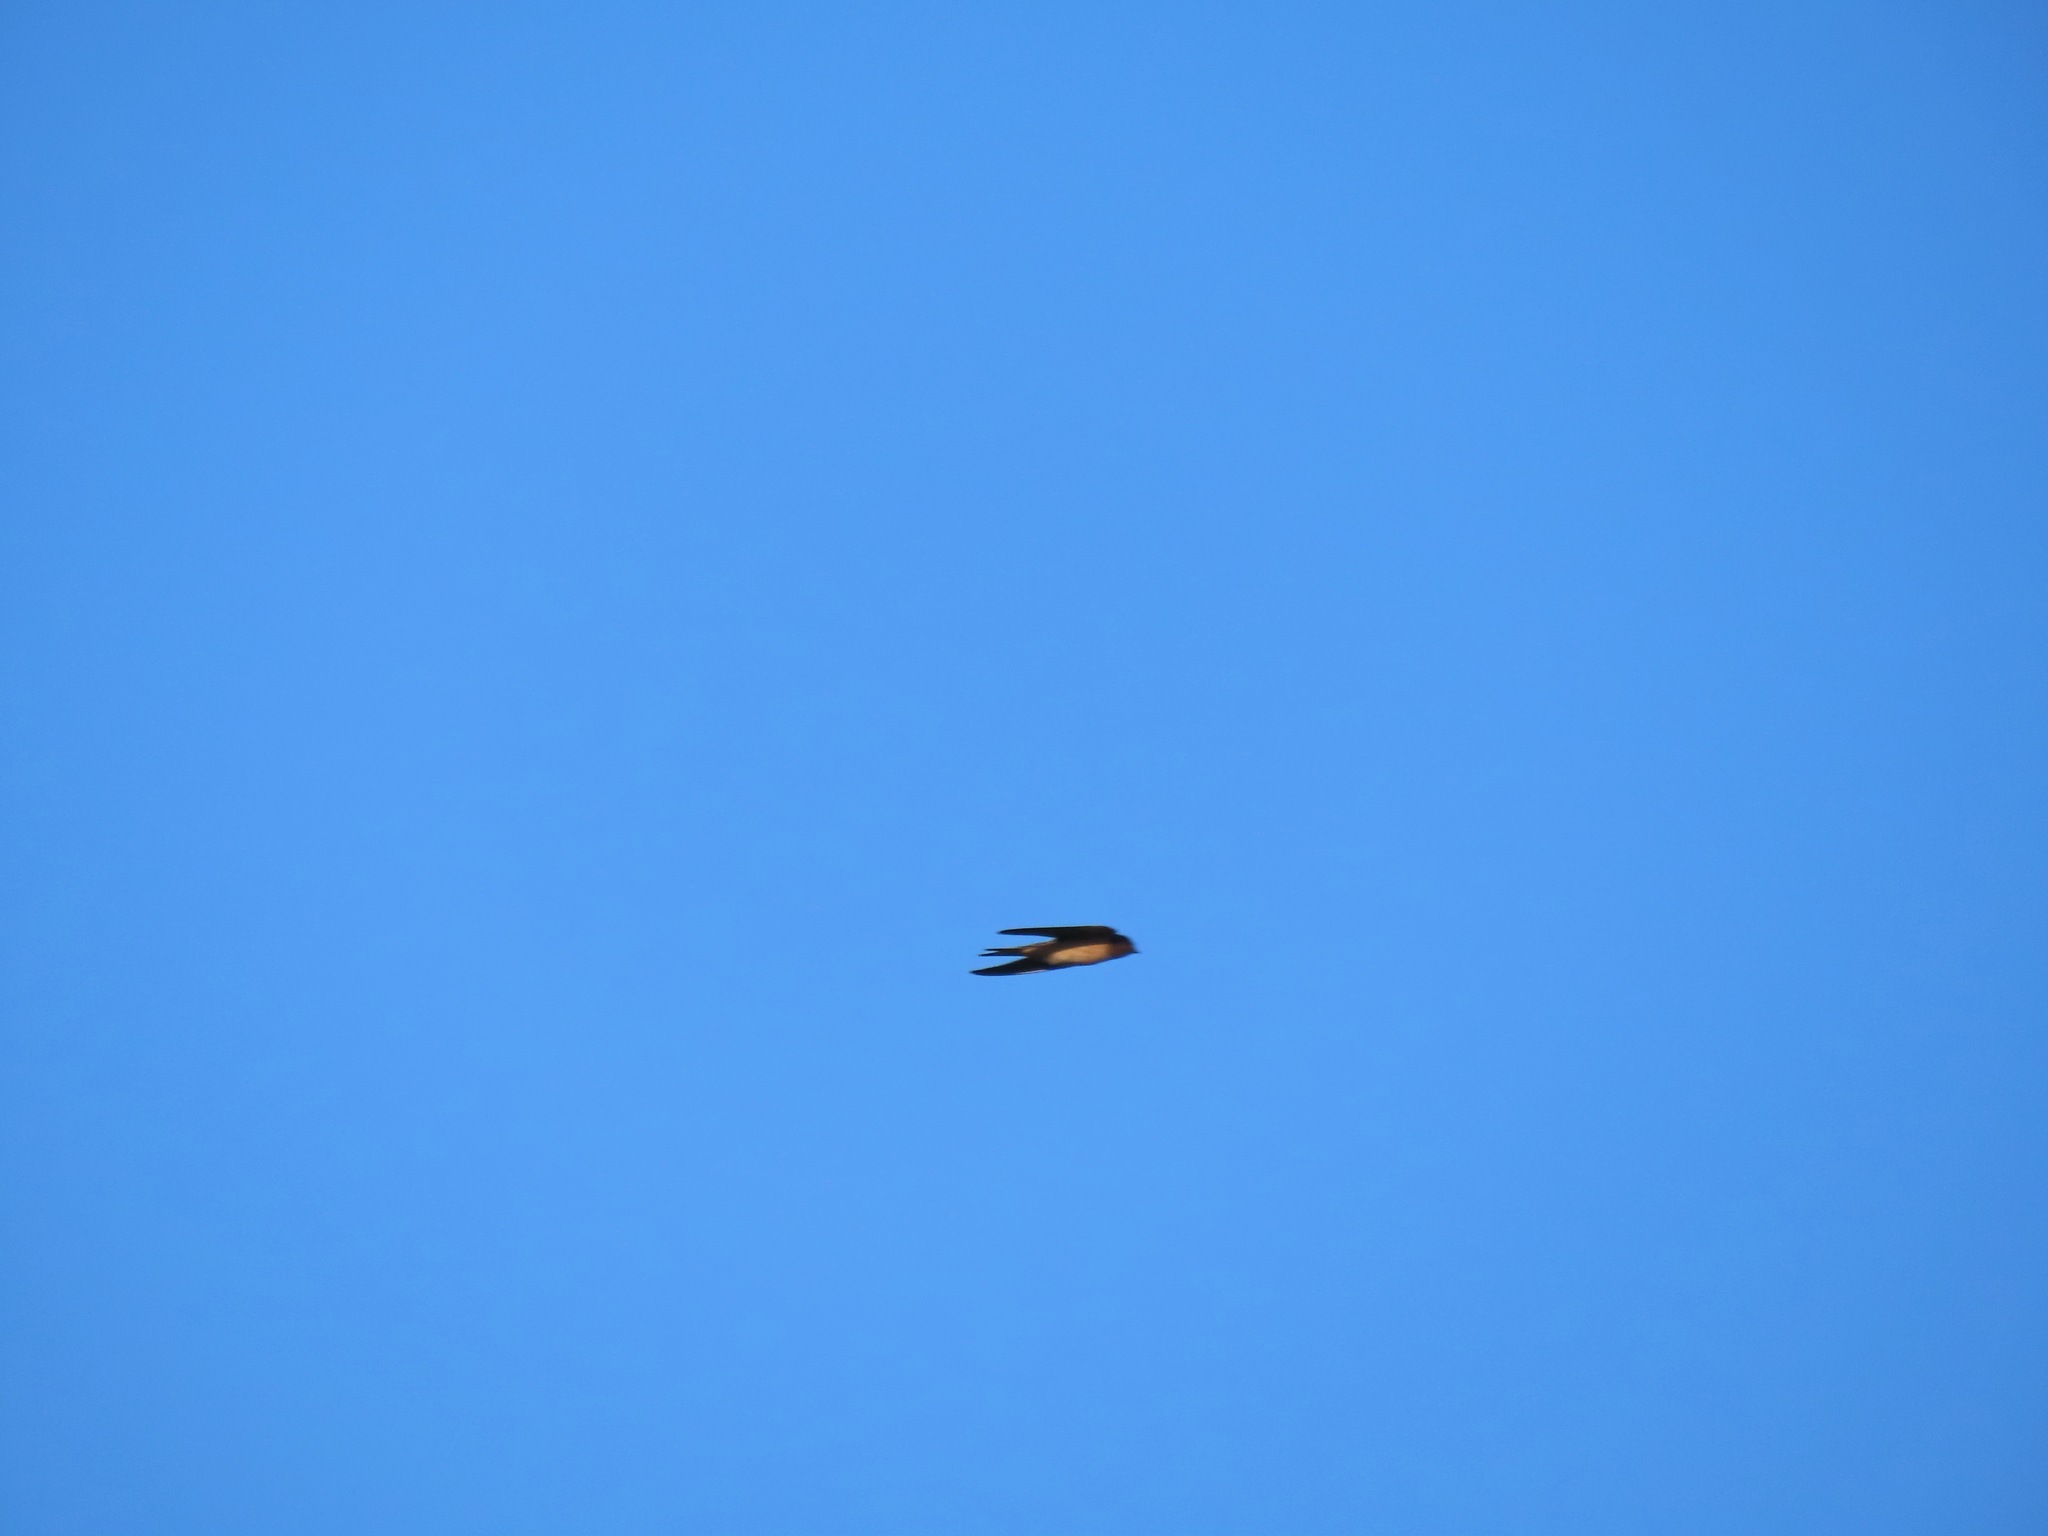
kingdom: Animalia
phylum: Chordata
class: Aves
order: Passeriformes
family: Hirundinidae
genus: Hirundo
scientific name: Hirundo rustica
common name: Barn swallow
